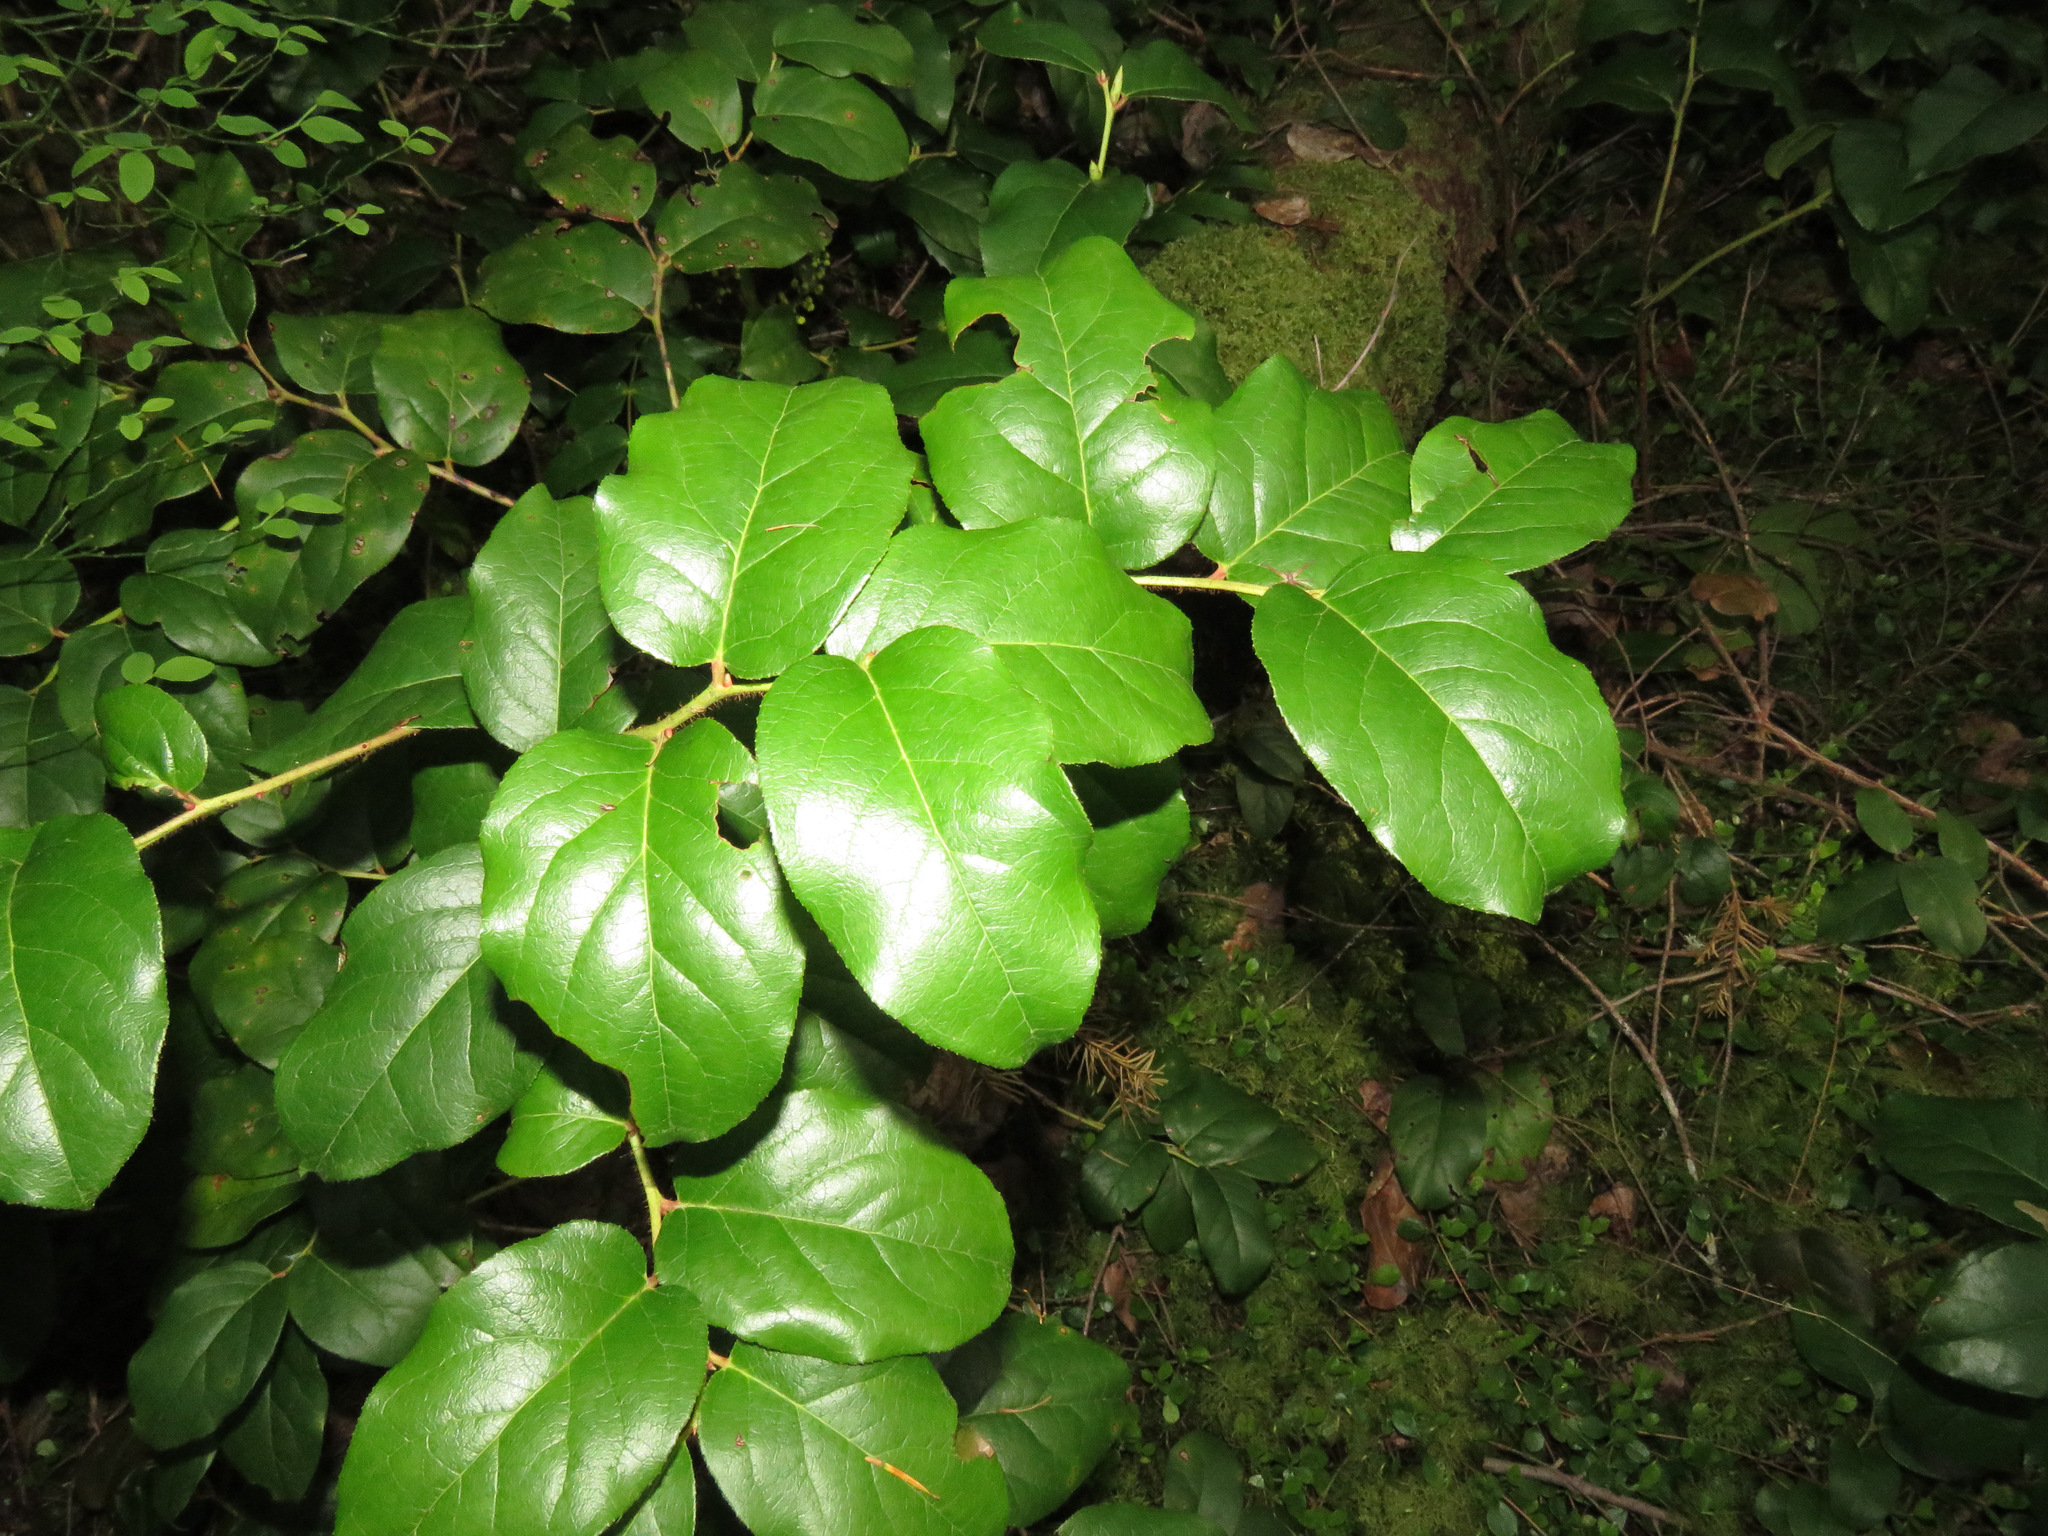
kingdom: Plantae
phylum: Tracheophyta
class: Magnoliopsida
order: Ericales
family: Ericaceae
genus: Gaultheria
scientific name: Gaultheria shallon
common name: Shallon
